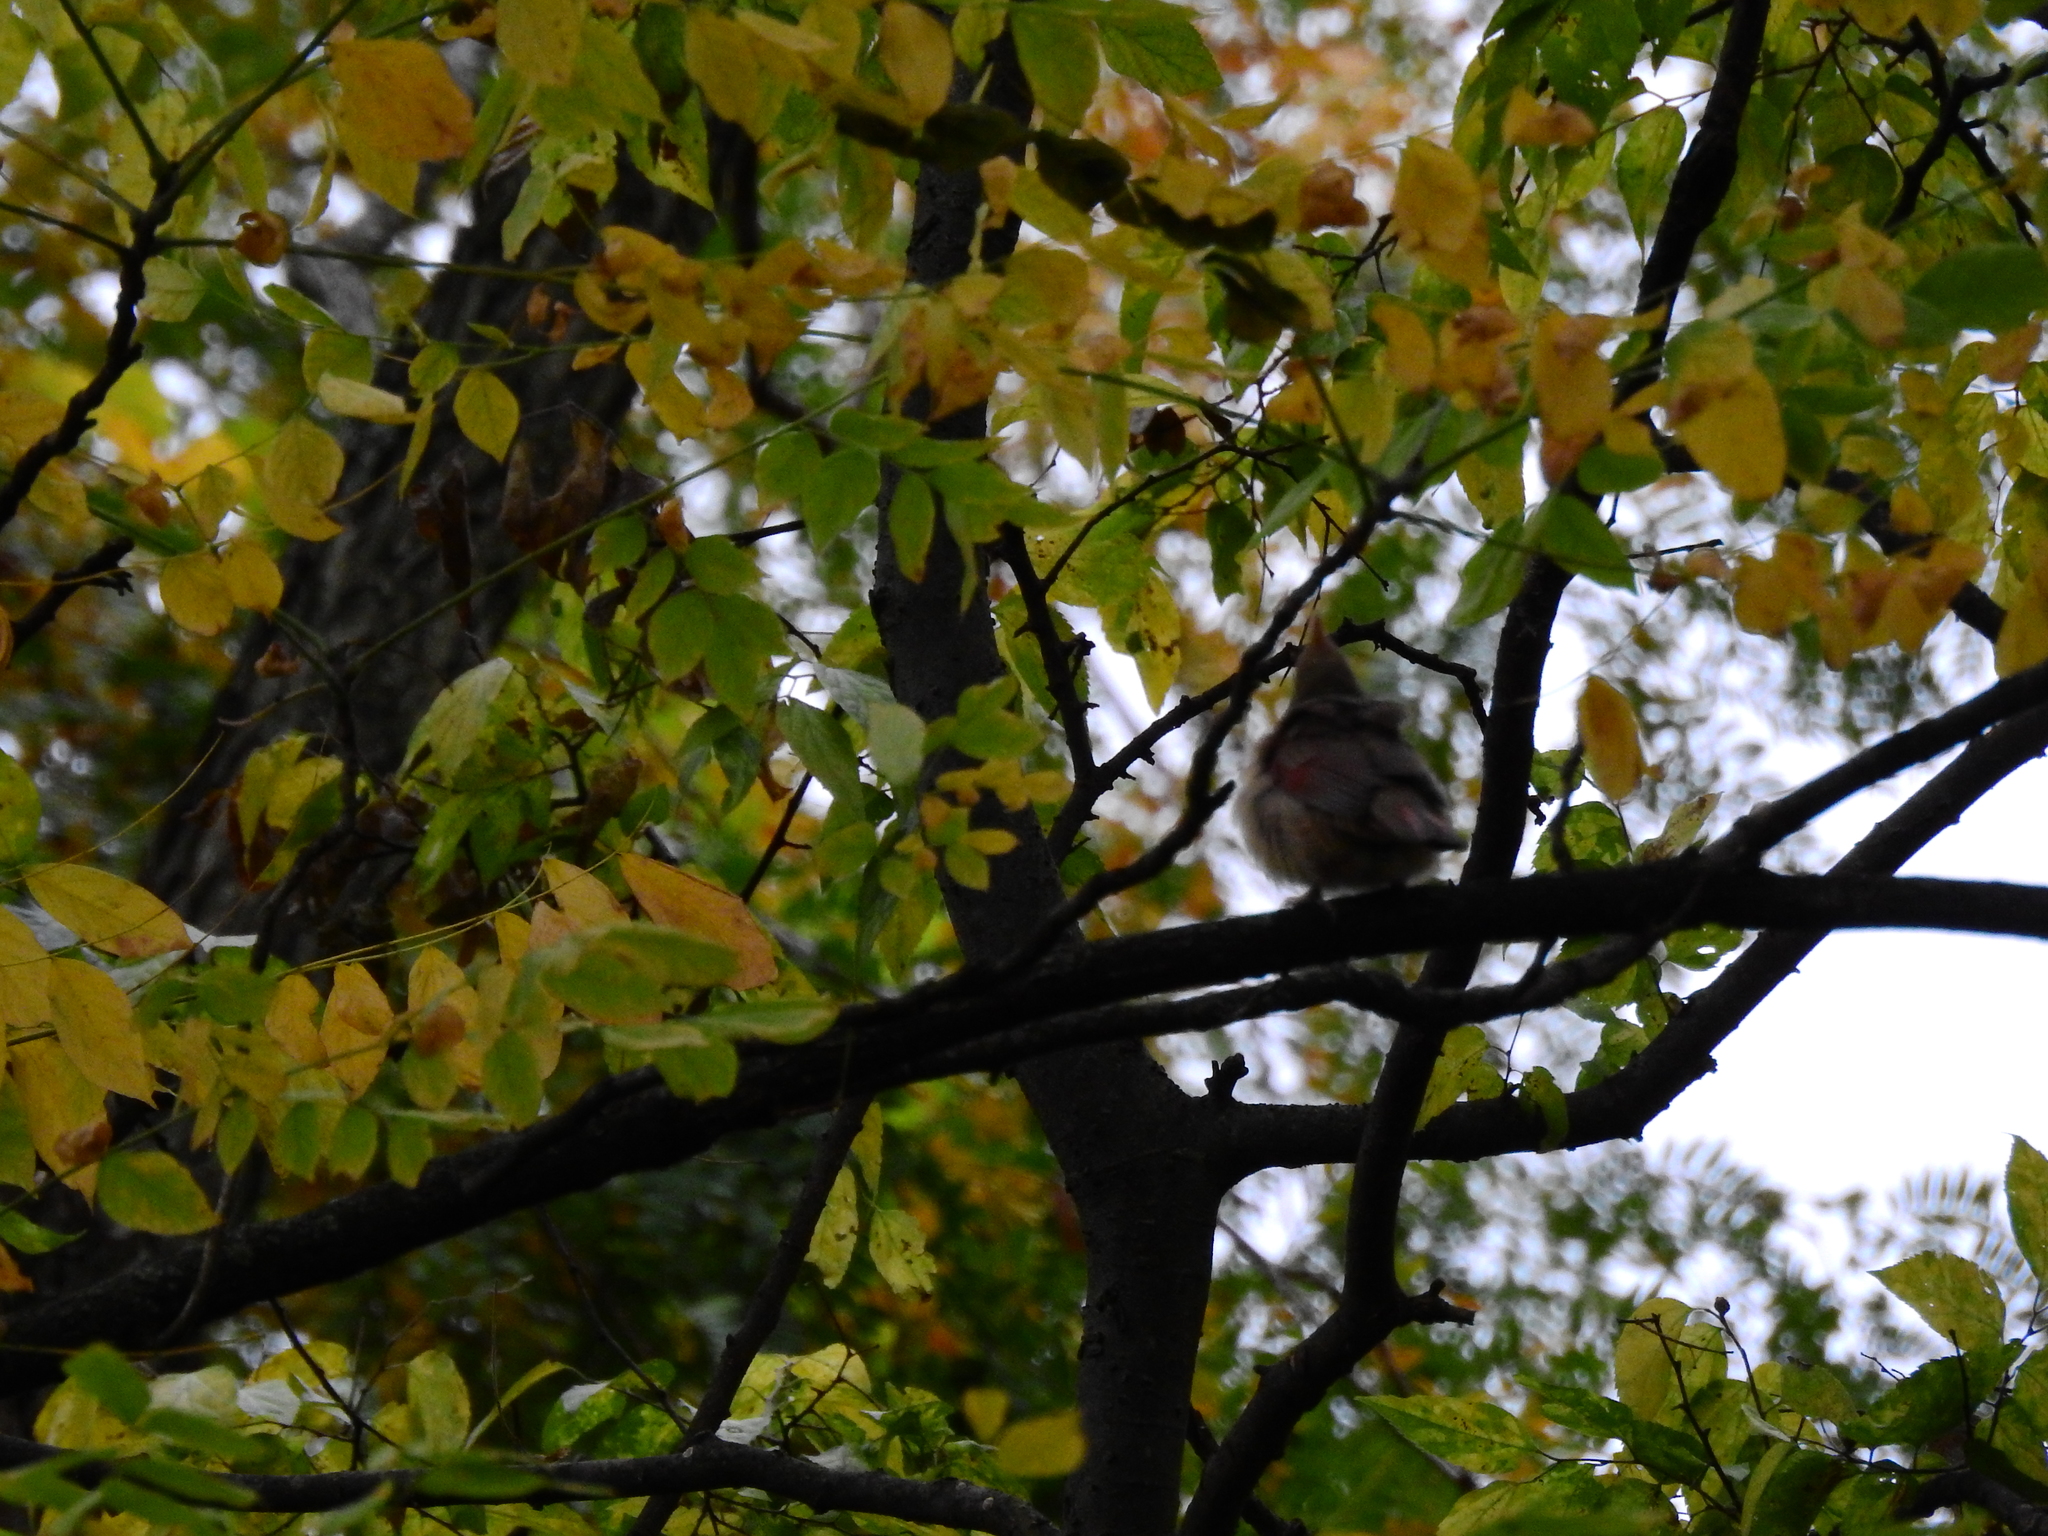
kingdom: Animalia
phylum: Chordata
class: Aves
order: Passeriformes
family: Cardinalidae
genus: Cardinalis
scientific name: Cardinalis cardinalis
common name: Northern cardinal
